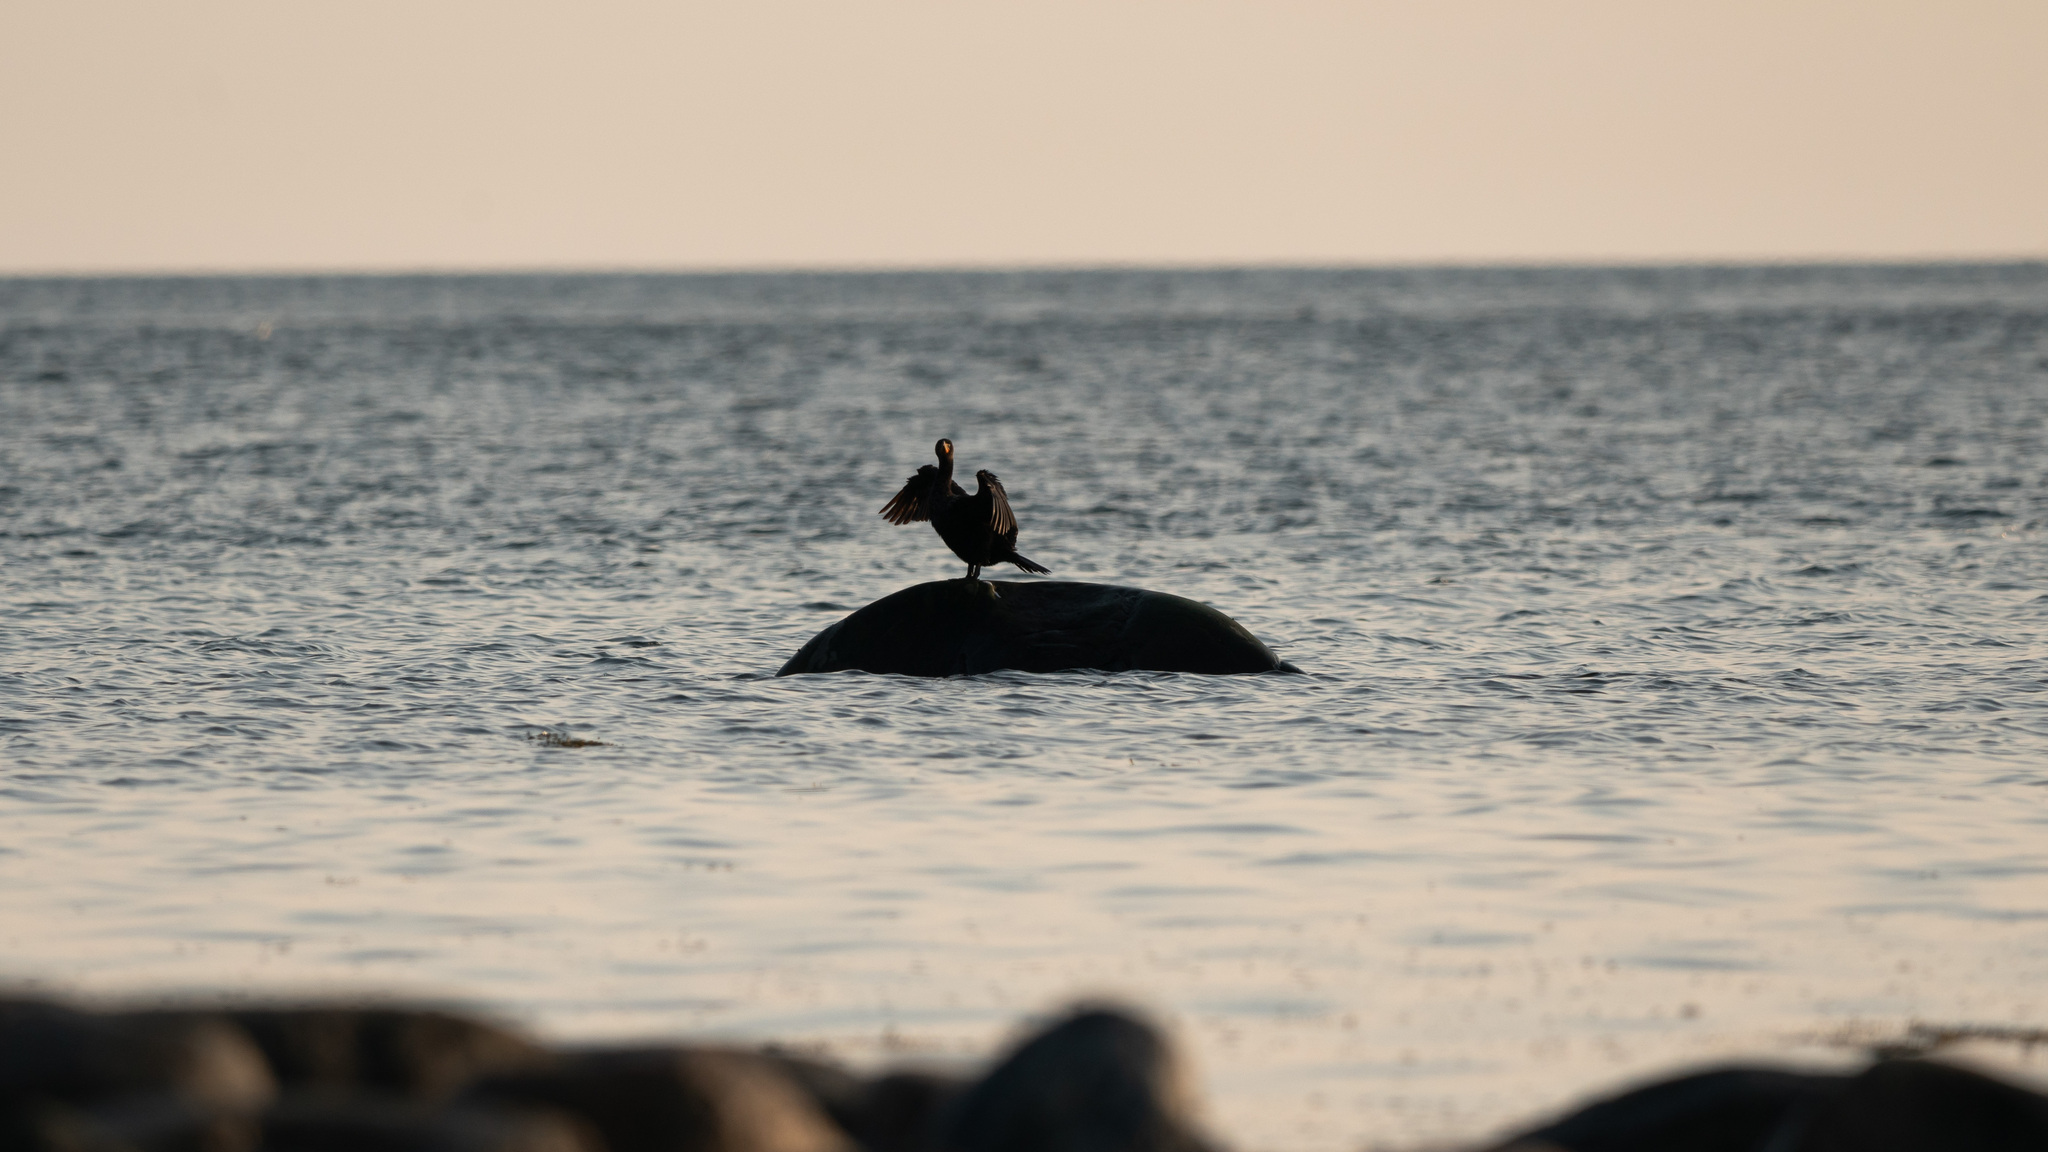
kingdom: Animalia
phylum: Chordata
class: Aves
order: Suliformes
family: Phalacrocoracidae
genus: Phalacrocorax
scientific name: Phalacrocorax auritus
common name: Double-crested cormorant
